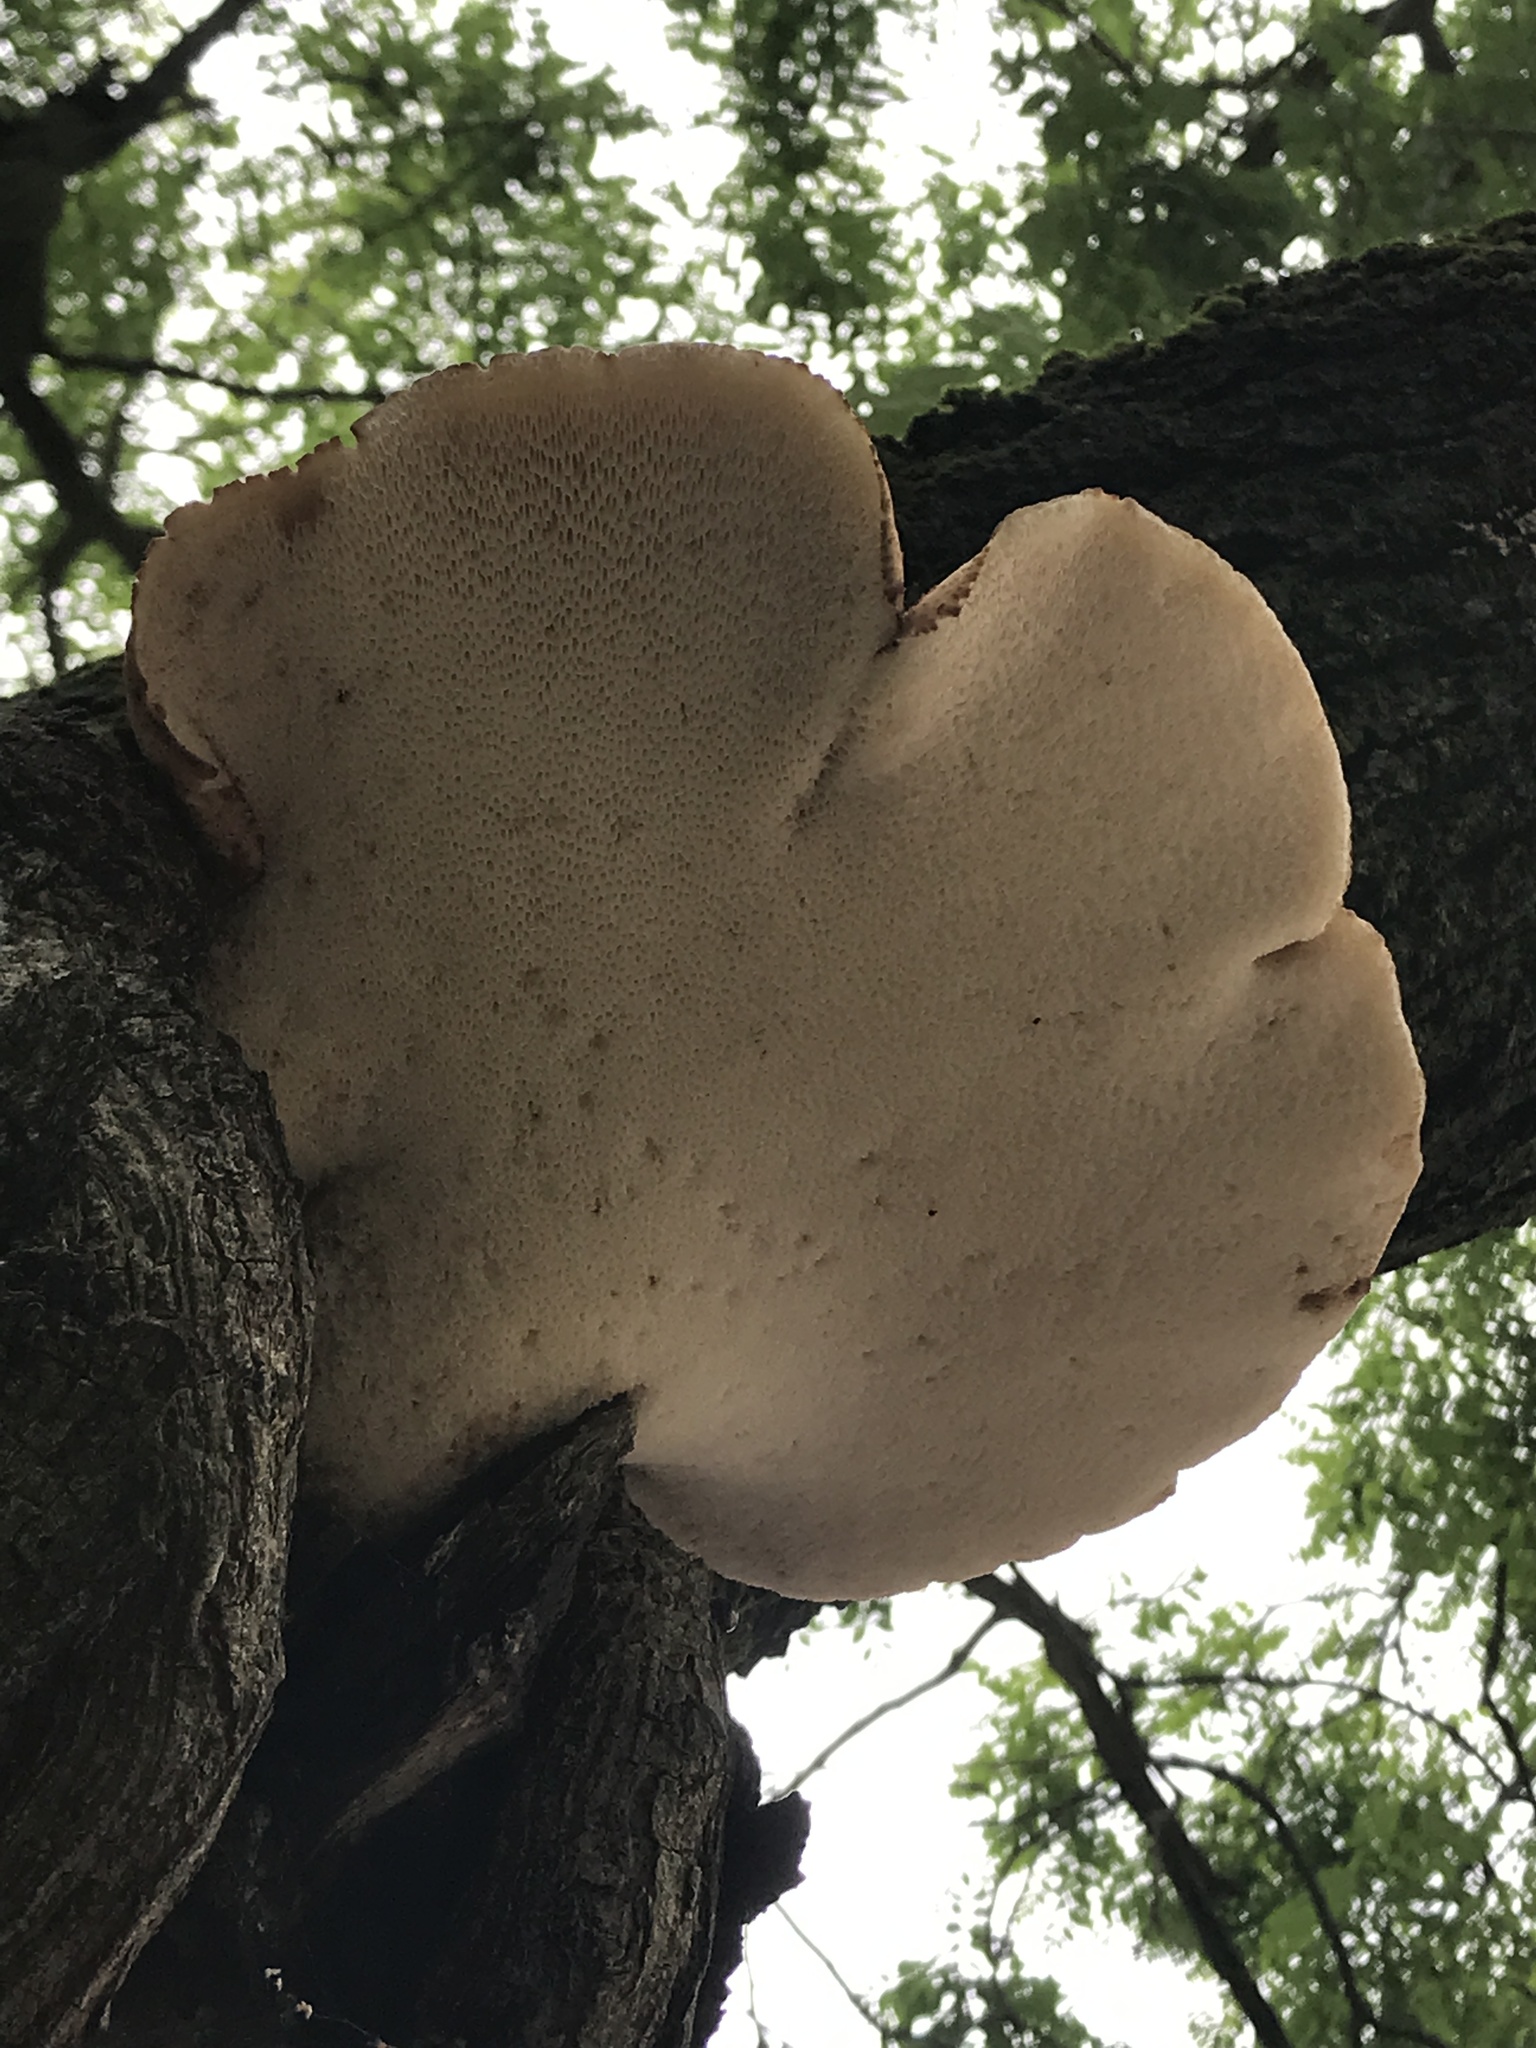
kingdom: Fungi
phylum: Basidiomycota
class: Agaricomycetes
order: Polyporales
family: Polyporaceae
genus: Cerioporus
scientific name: Cerioporus squamosus
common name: Dryad's saddle
